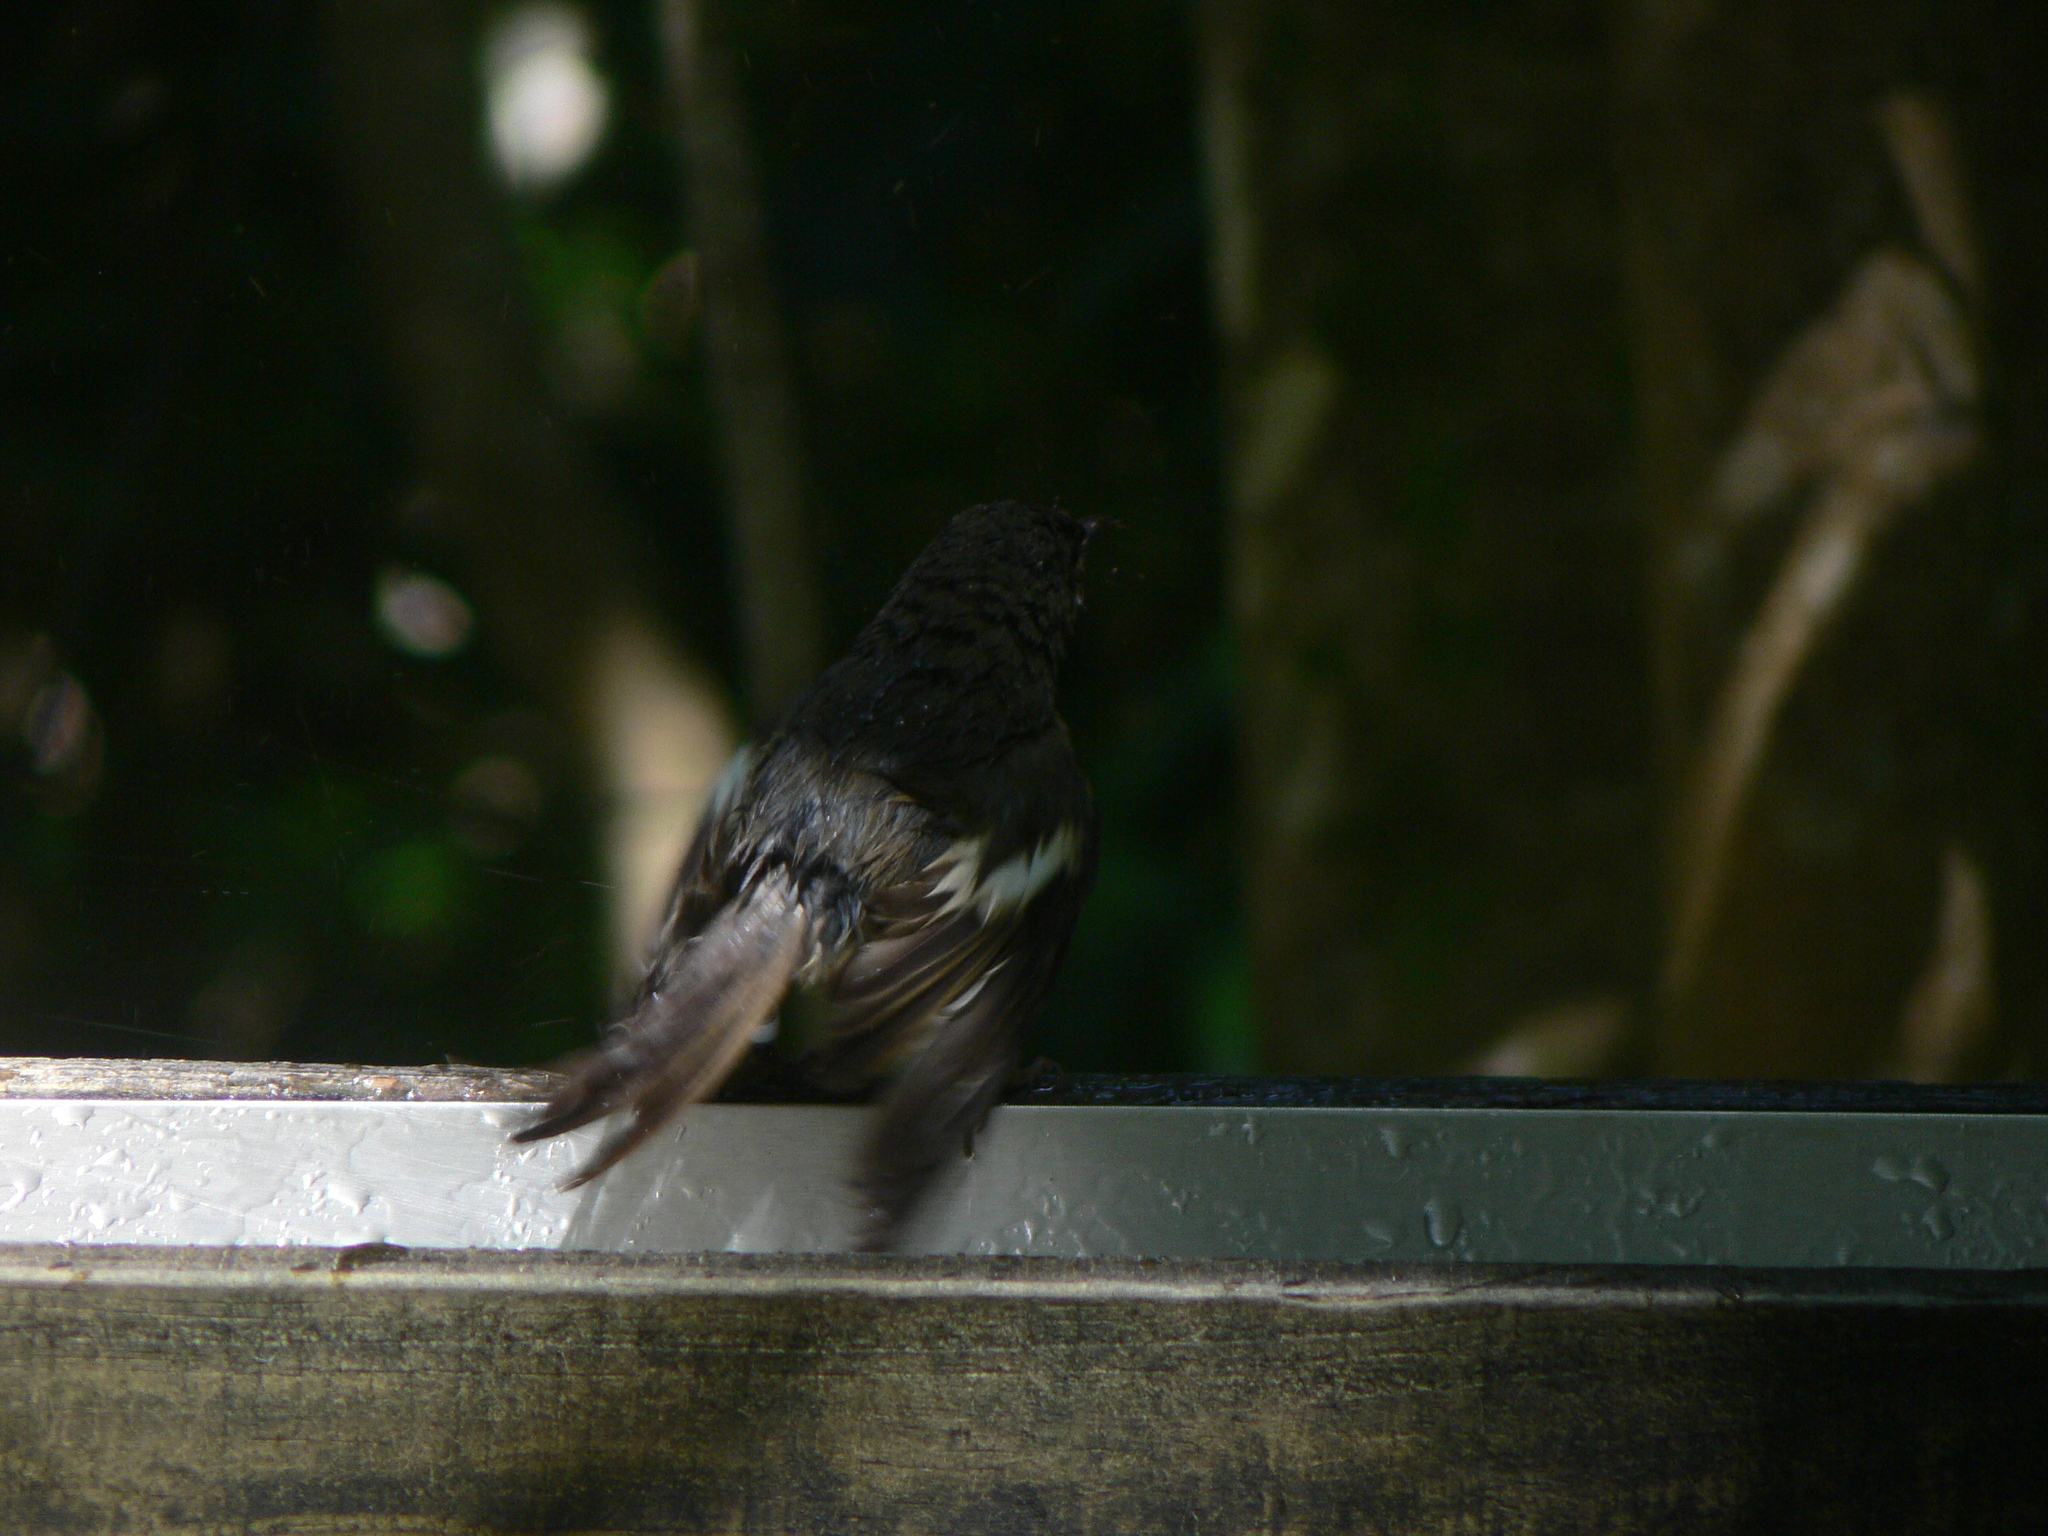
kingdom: Animalia
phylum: Chordata
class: Aves
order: Passeriformes
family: Notiomystidae
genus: Notiomystis
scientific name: Notiomystis cincta
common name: Stitchbird
